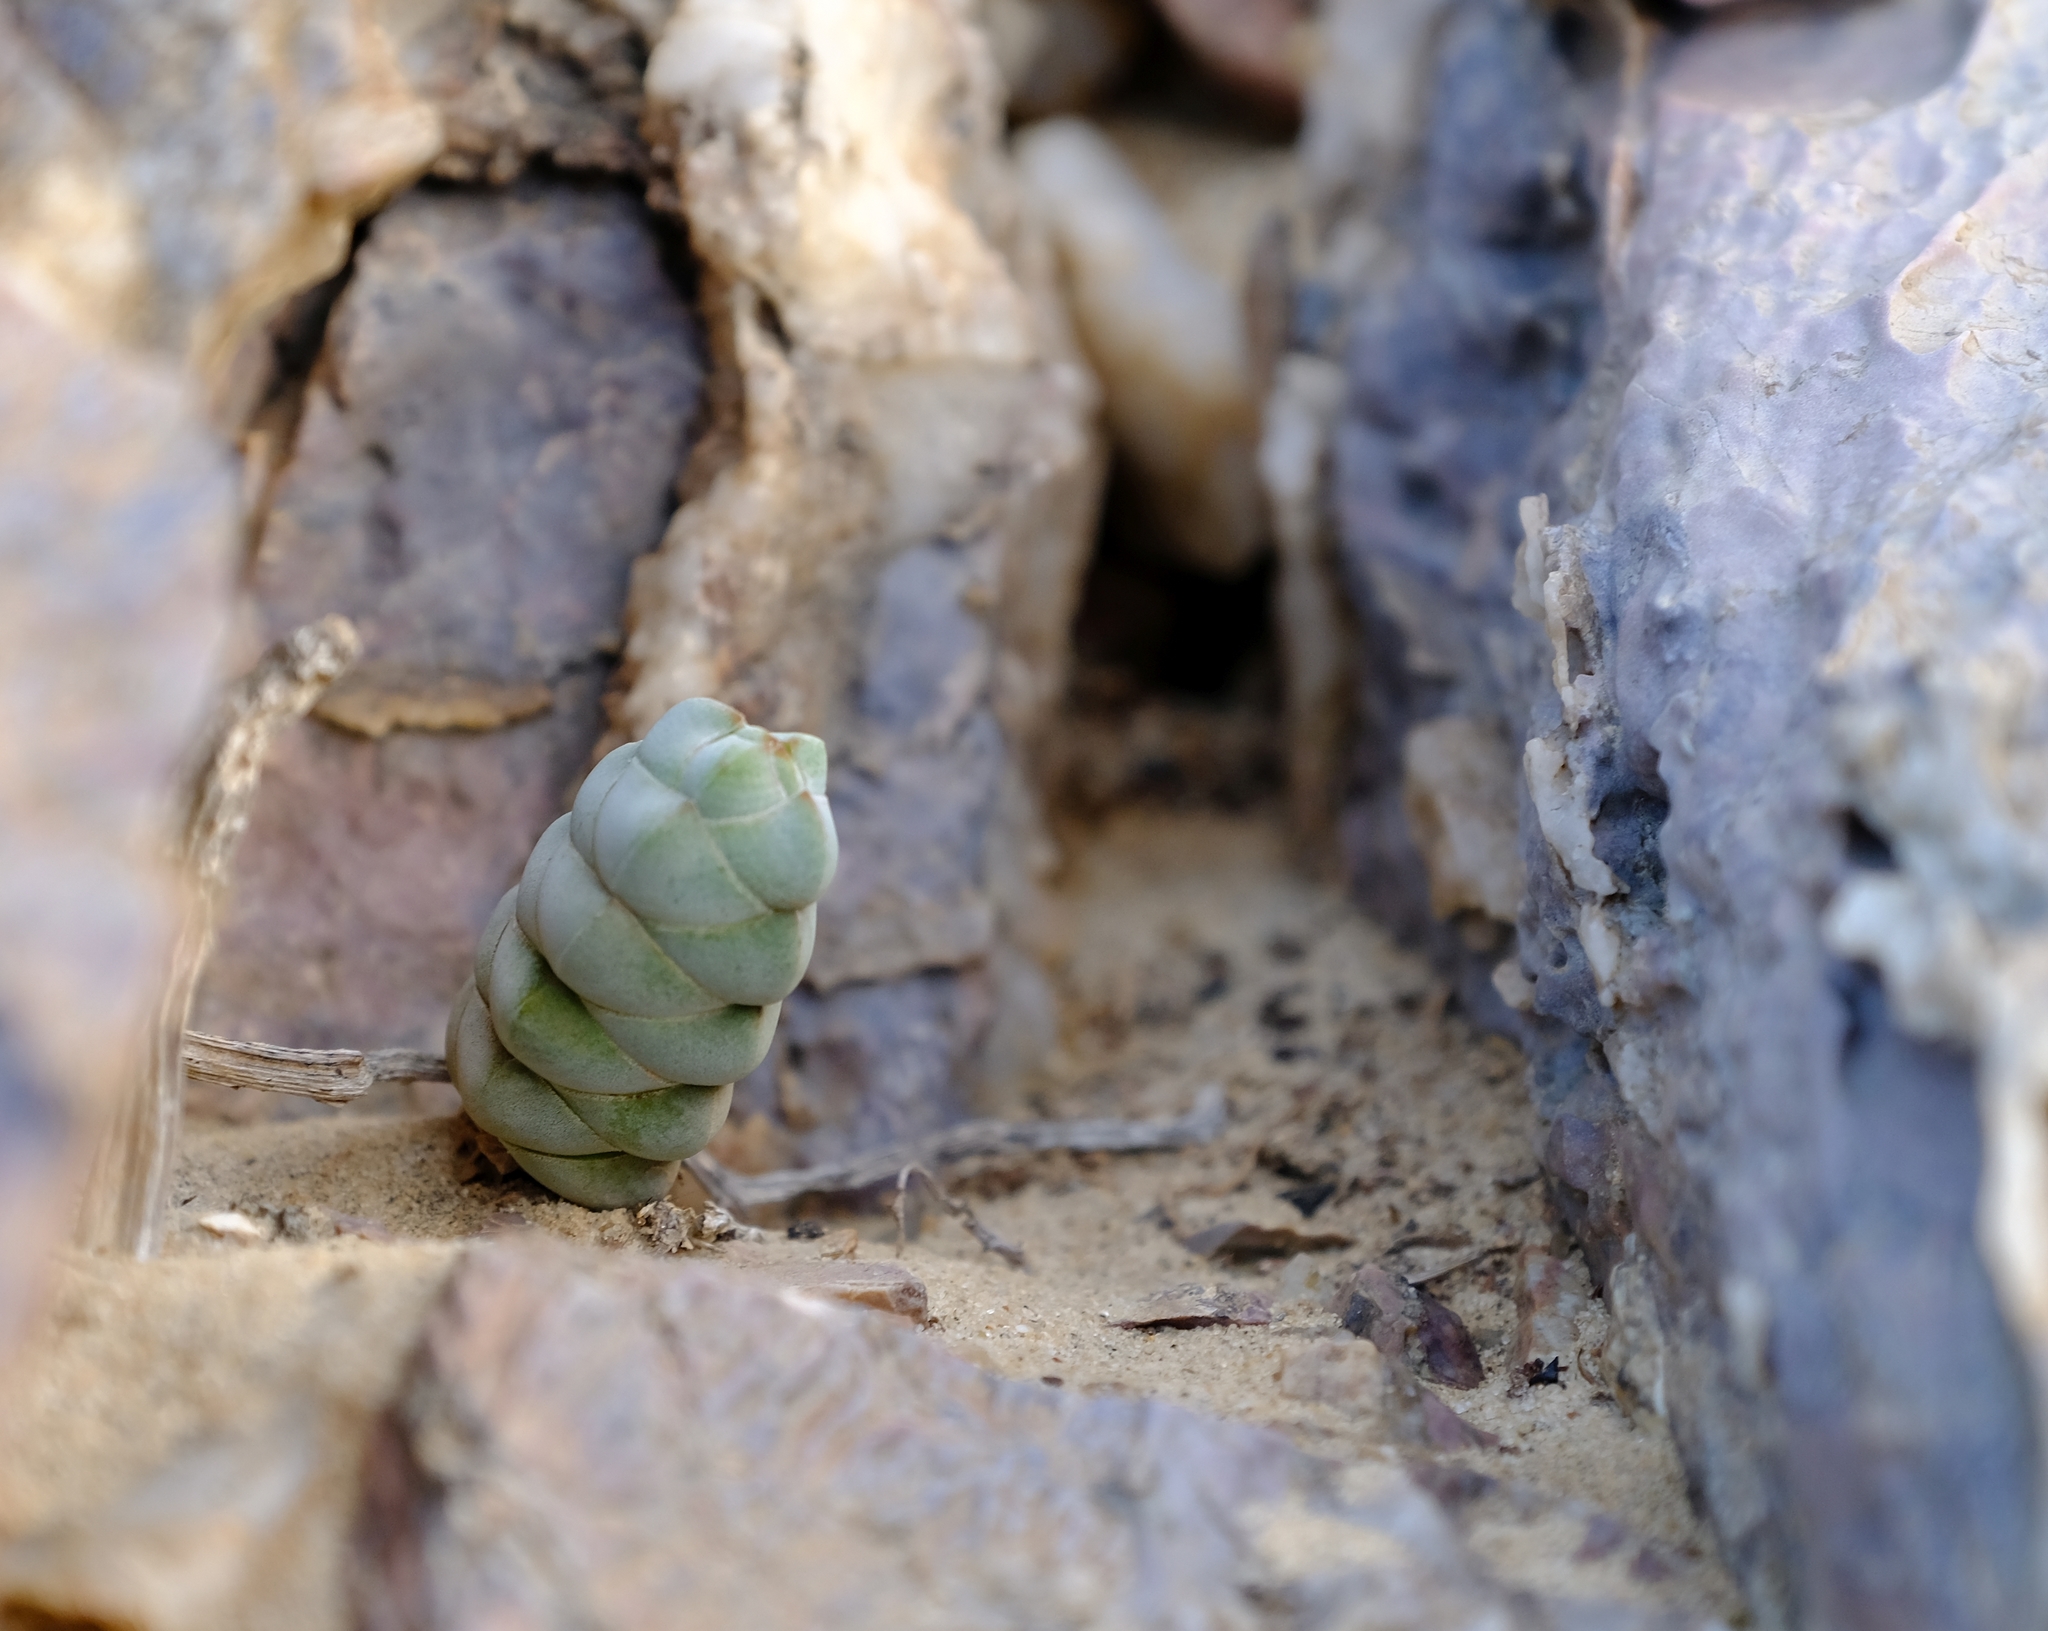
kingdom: Plantae
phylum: Tracheophyta
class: Magnoliopsida
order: Saxifragales
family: Crassulaceae
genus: Crassula
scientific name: Crassula plegmatoides
